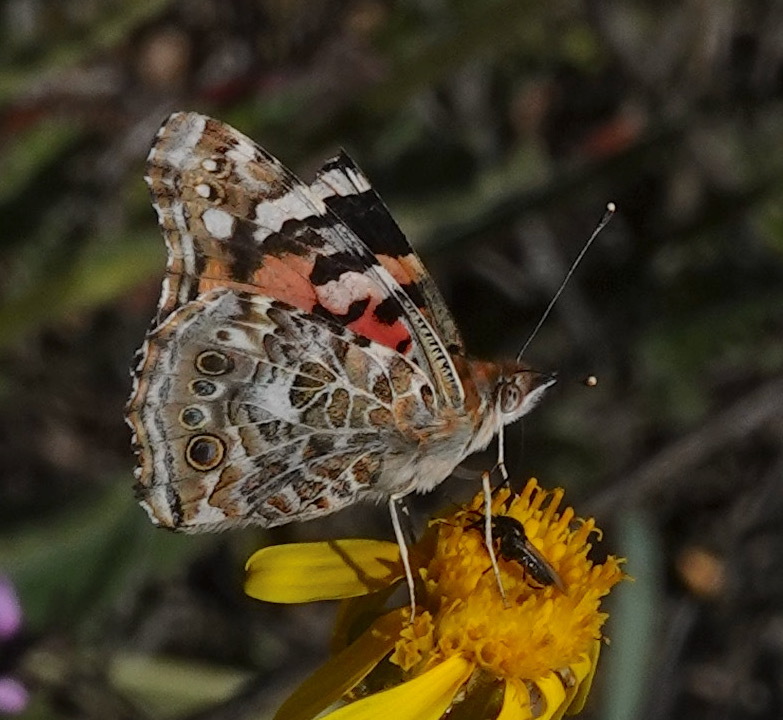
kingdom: Animalia
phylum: Arthropoda
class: Insecta
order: Lepidoptera
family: Nymphalidae
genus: Vanessa
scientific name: Vanessa cardui
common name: Painted lady
